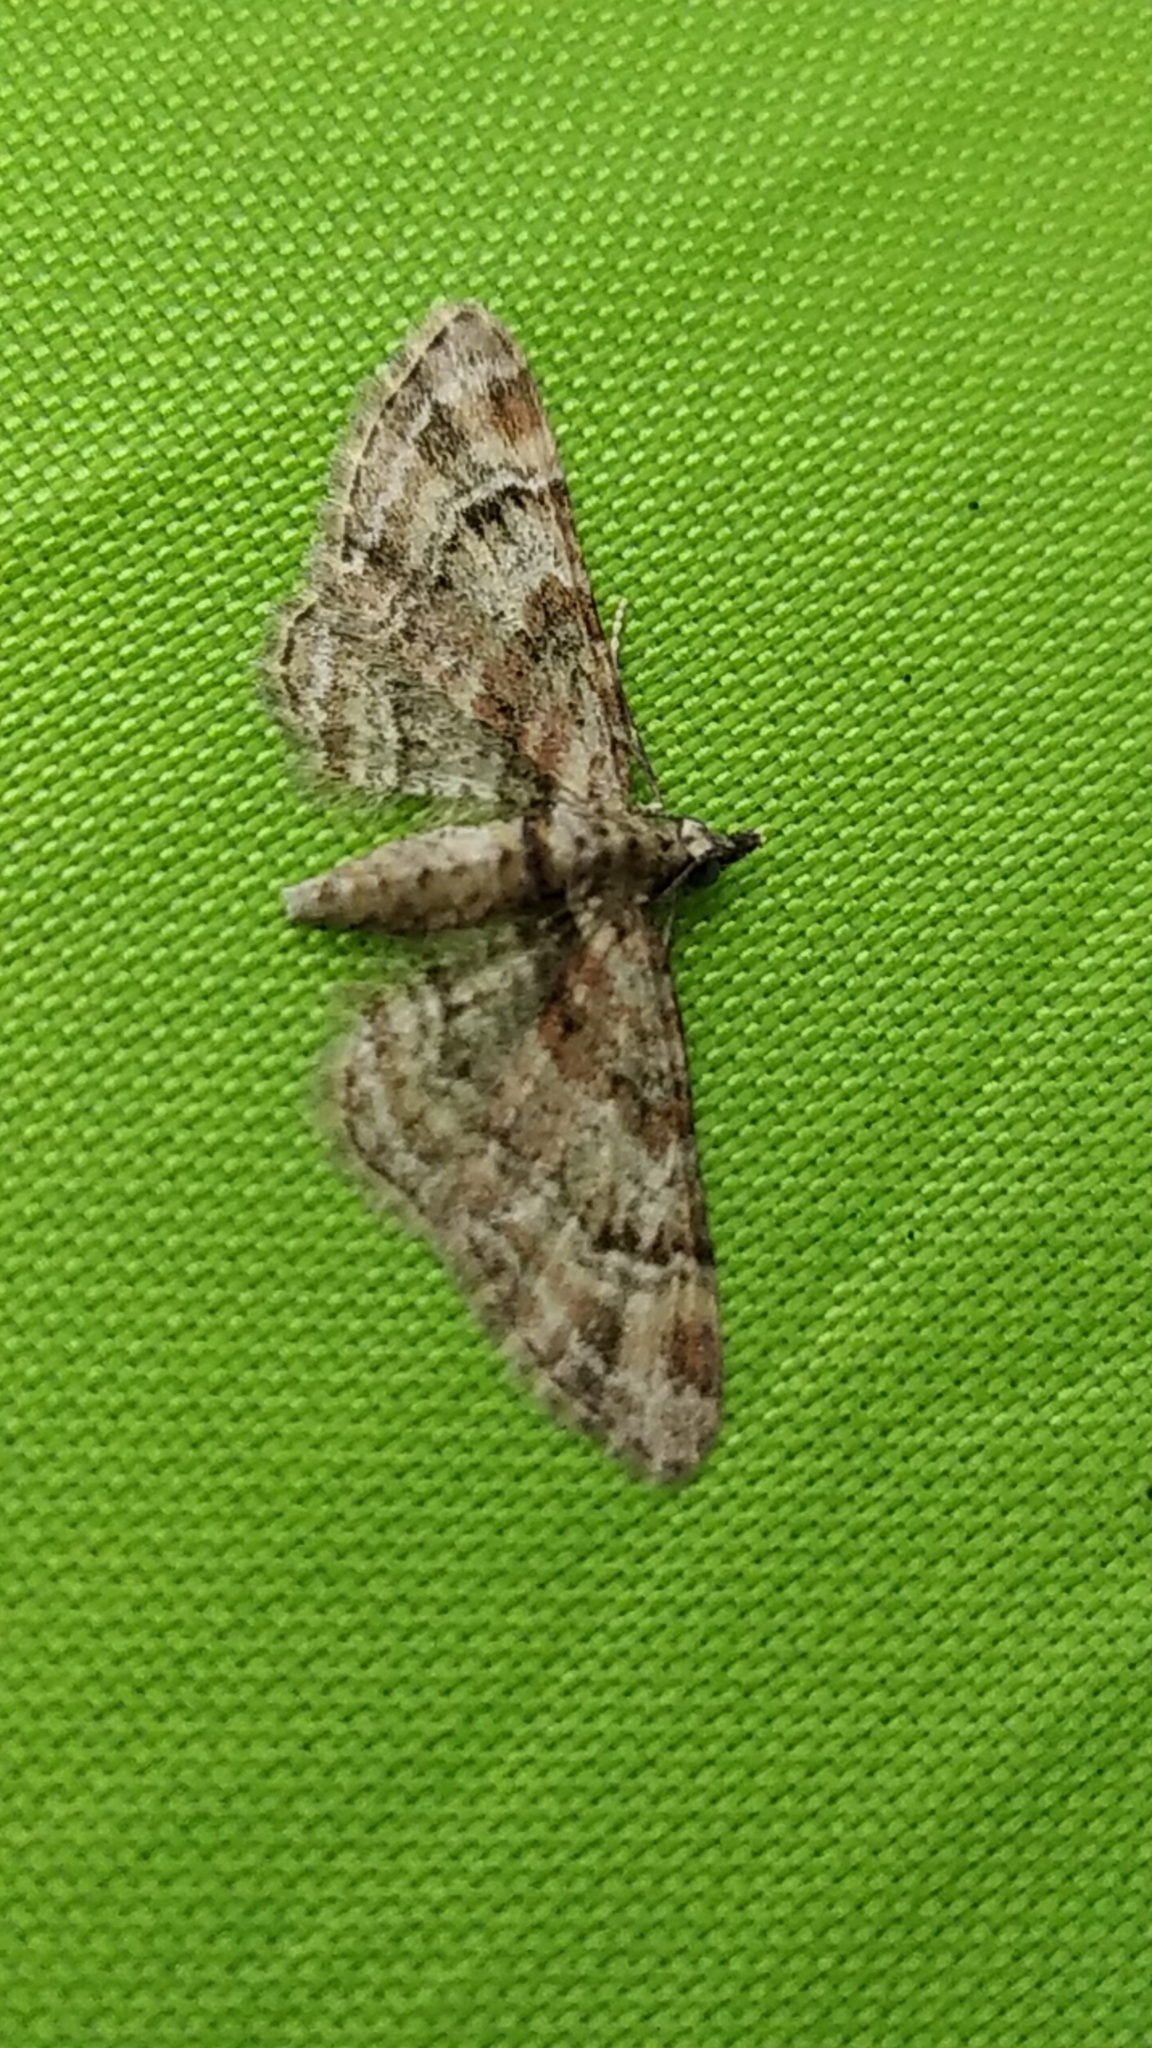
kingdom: Animalia
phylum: Arthropoda
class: Insecta
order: Lepidoptera
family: Geometridae
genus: Gymnoscelis
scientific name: Gymnoscelis rufifasciata
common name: Double-striped pug
